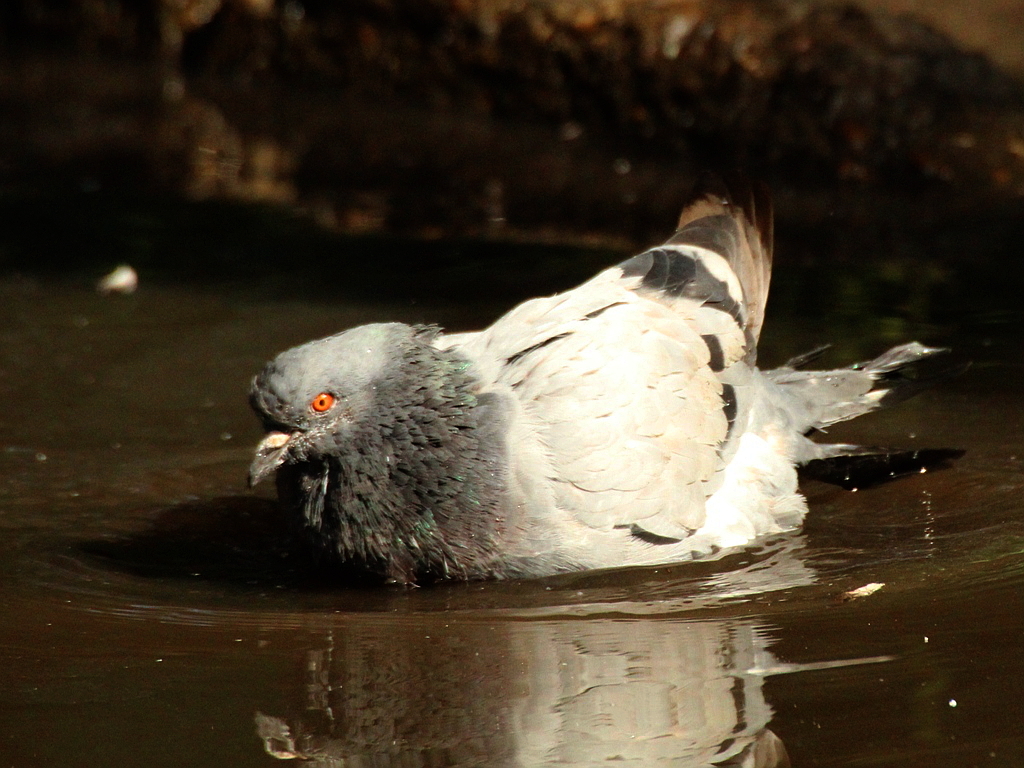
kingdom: Animalia
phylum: Chordata
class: Aves
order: Columbiformes
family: Columbidae
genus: Columba
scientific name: Columba livia
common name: Rock pigeon
